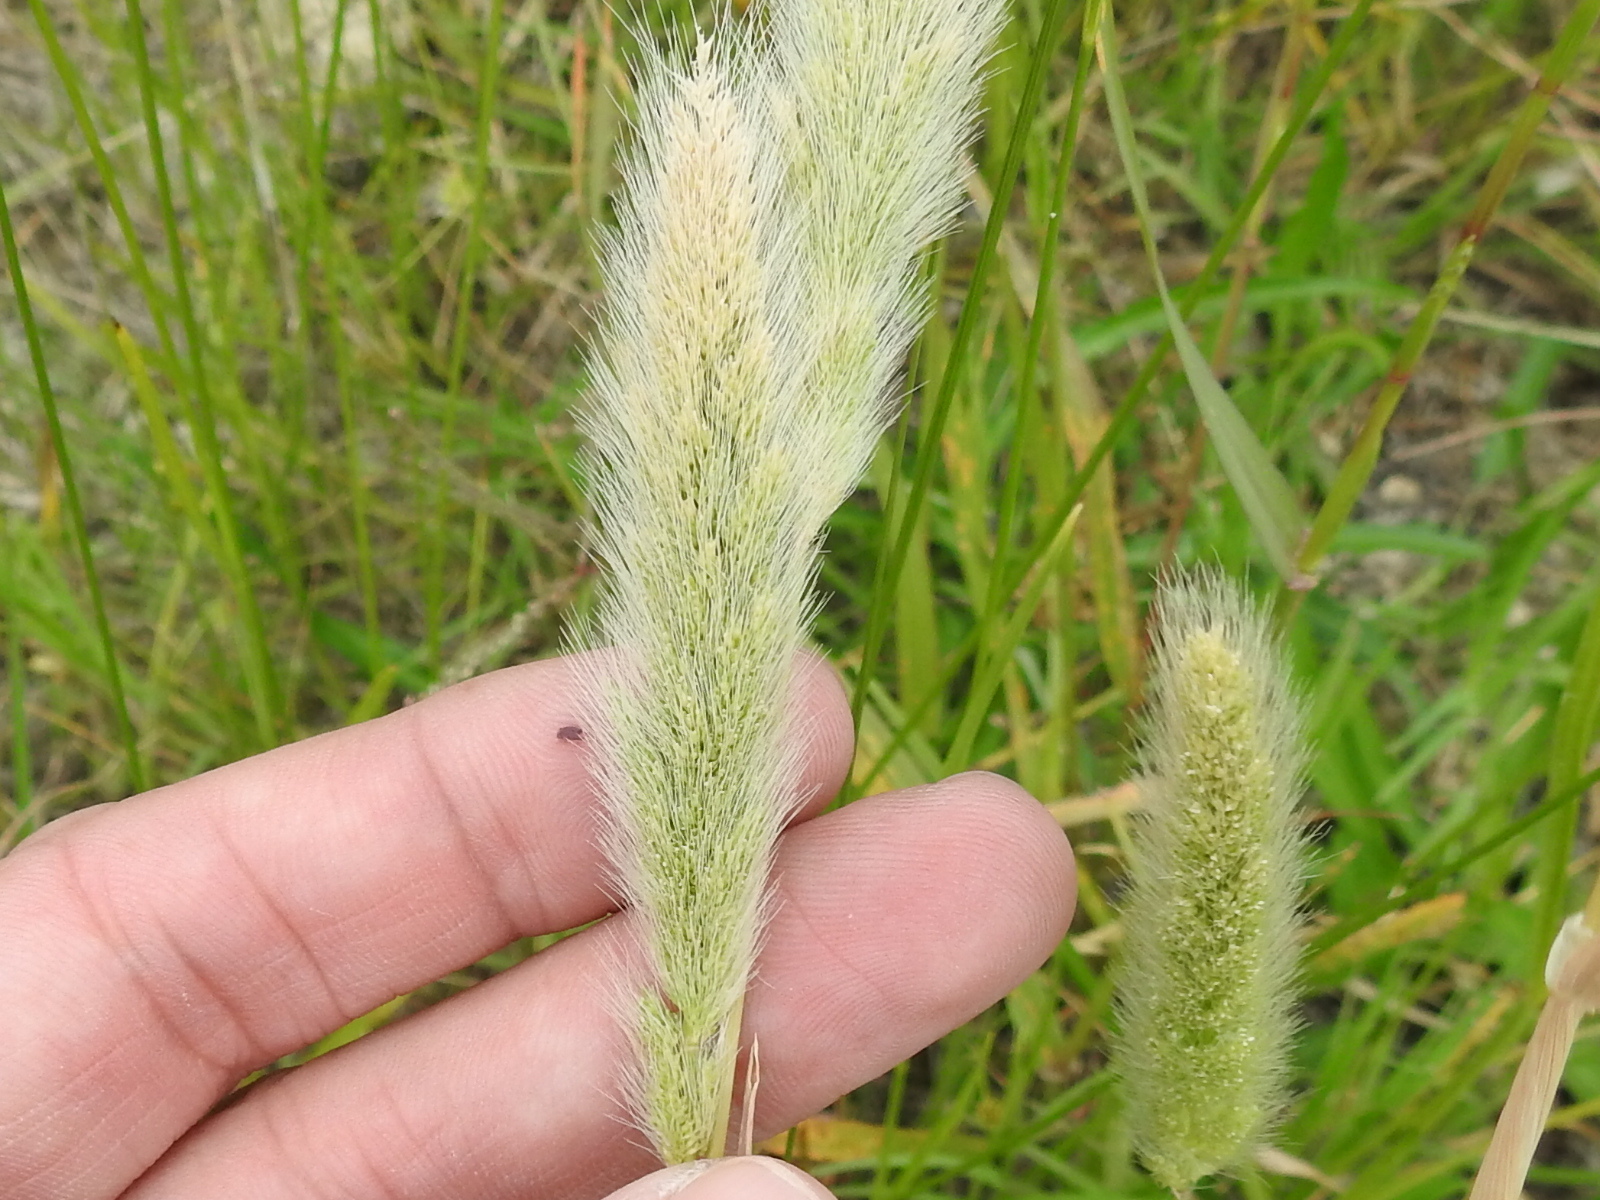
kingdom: Plantae
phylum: Tracheophyta
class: Liliopsida
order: Poales
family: Poaceae
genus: Polypogon
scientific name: Polypogon monspeliensis
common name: Annual rabbitsfoot grass
